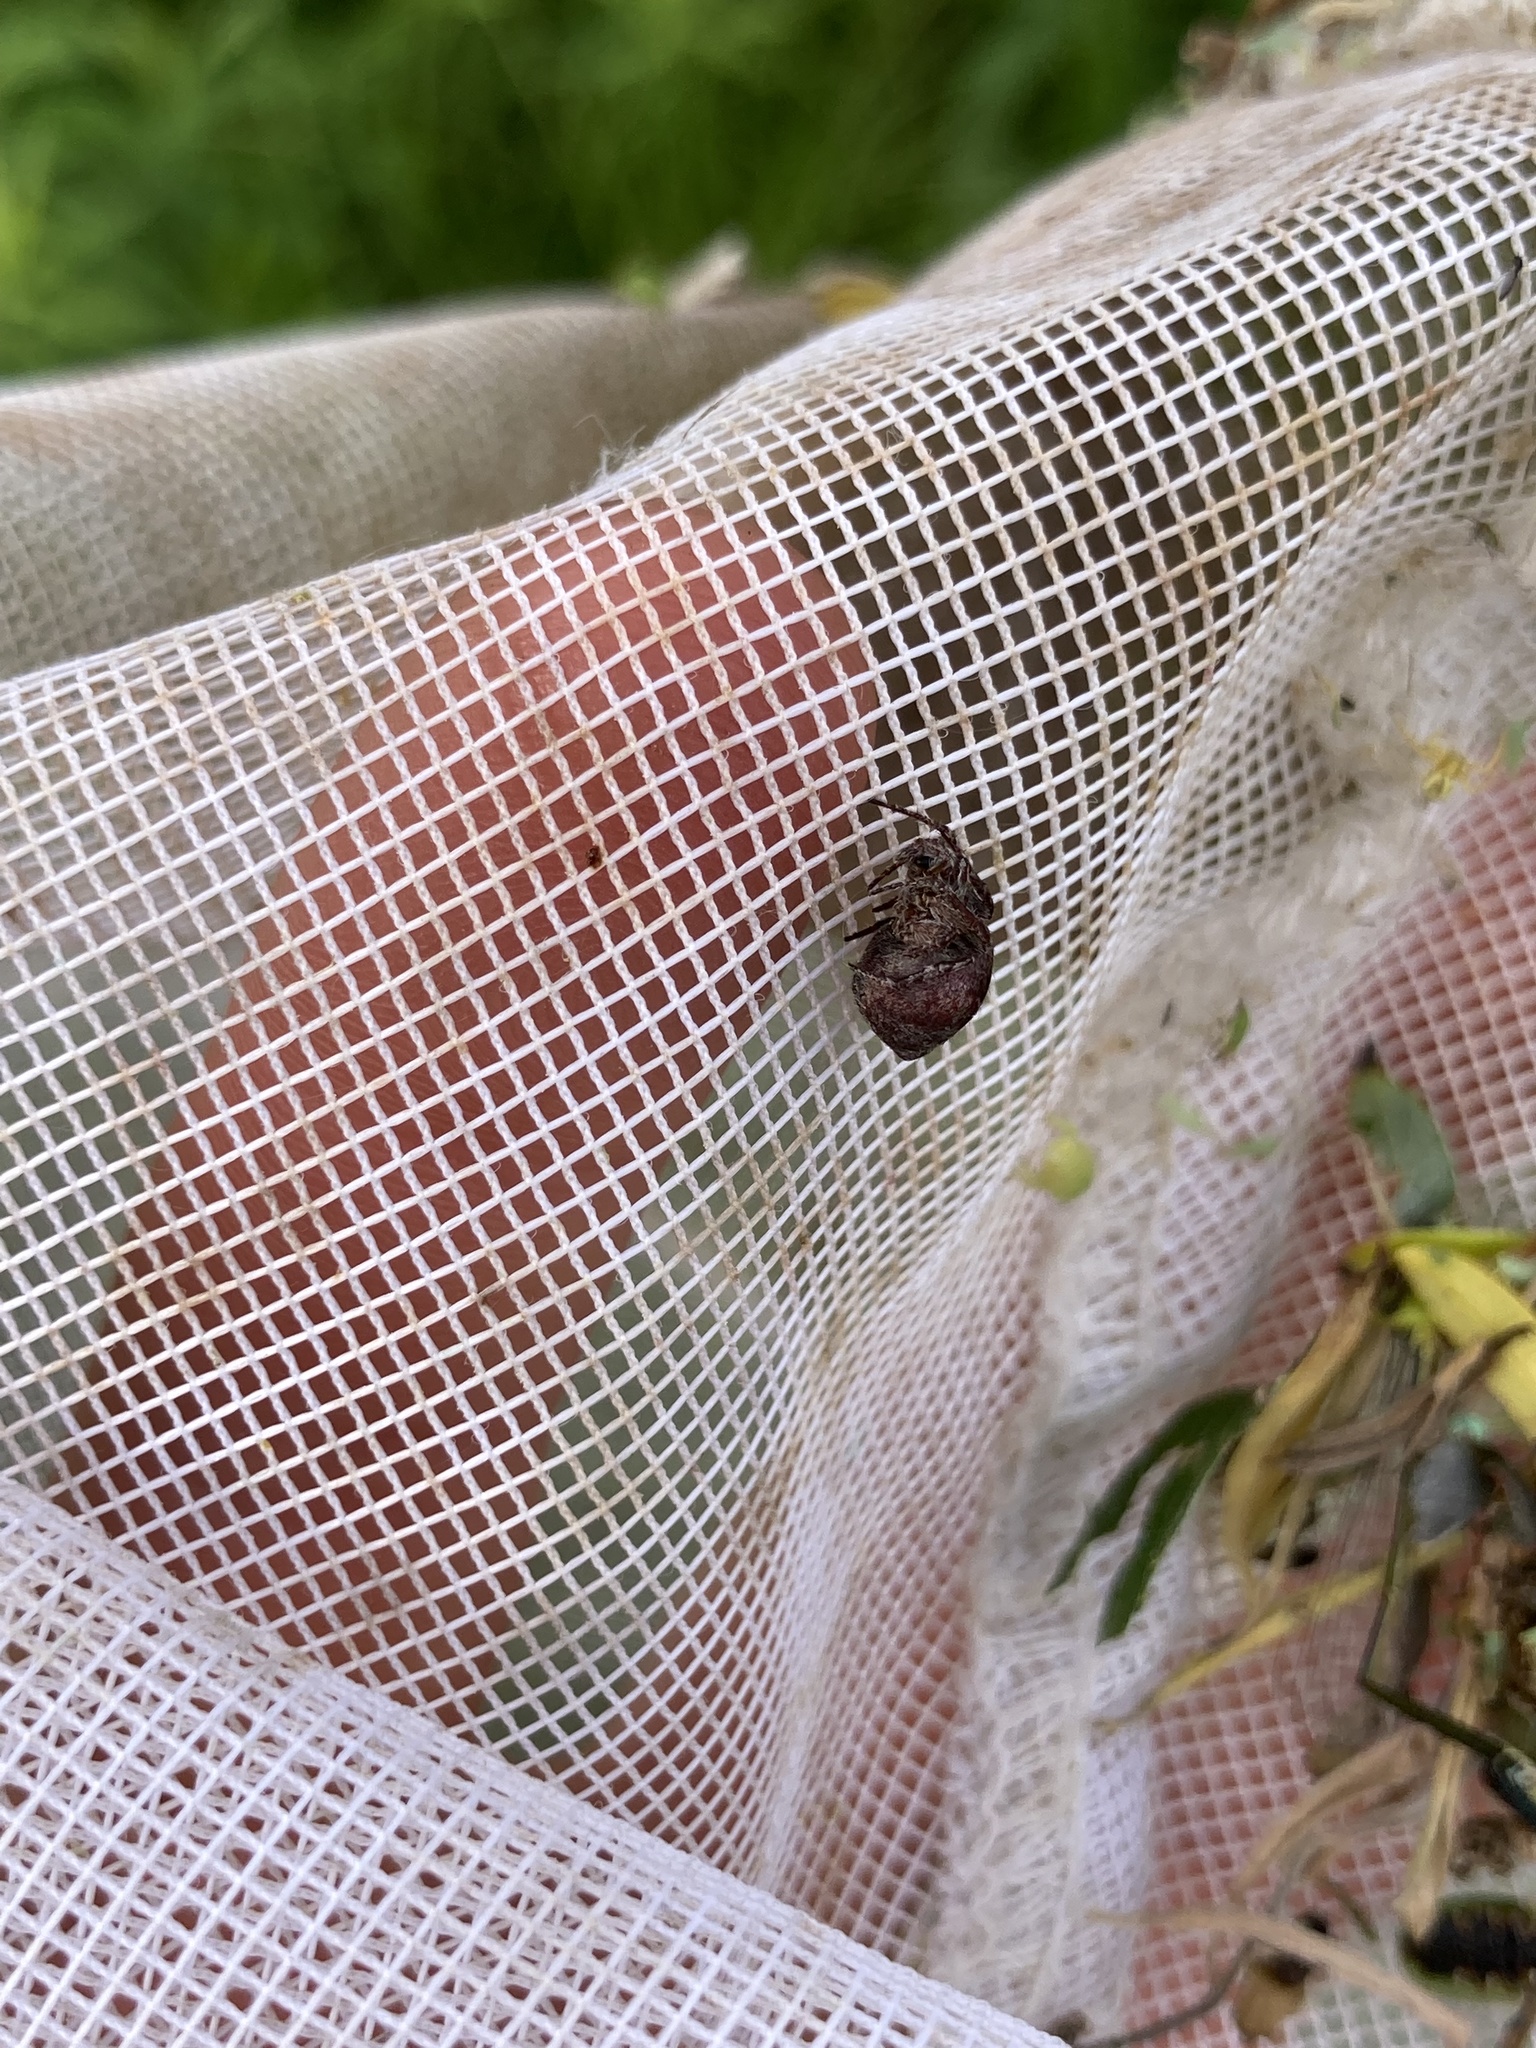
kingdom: Animalia
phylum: Arthropoda
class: Arachnida
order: Araneae
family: Araneidae
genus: Eustala
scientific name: Eustala anastera
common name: Orb weavers
